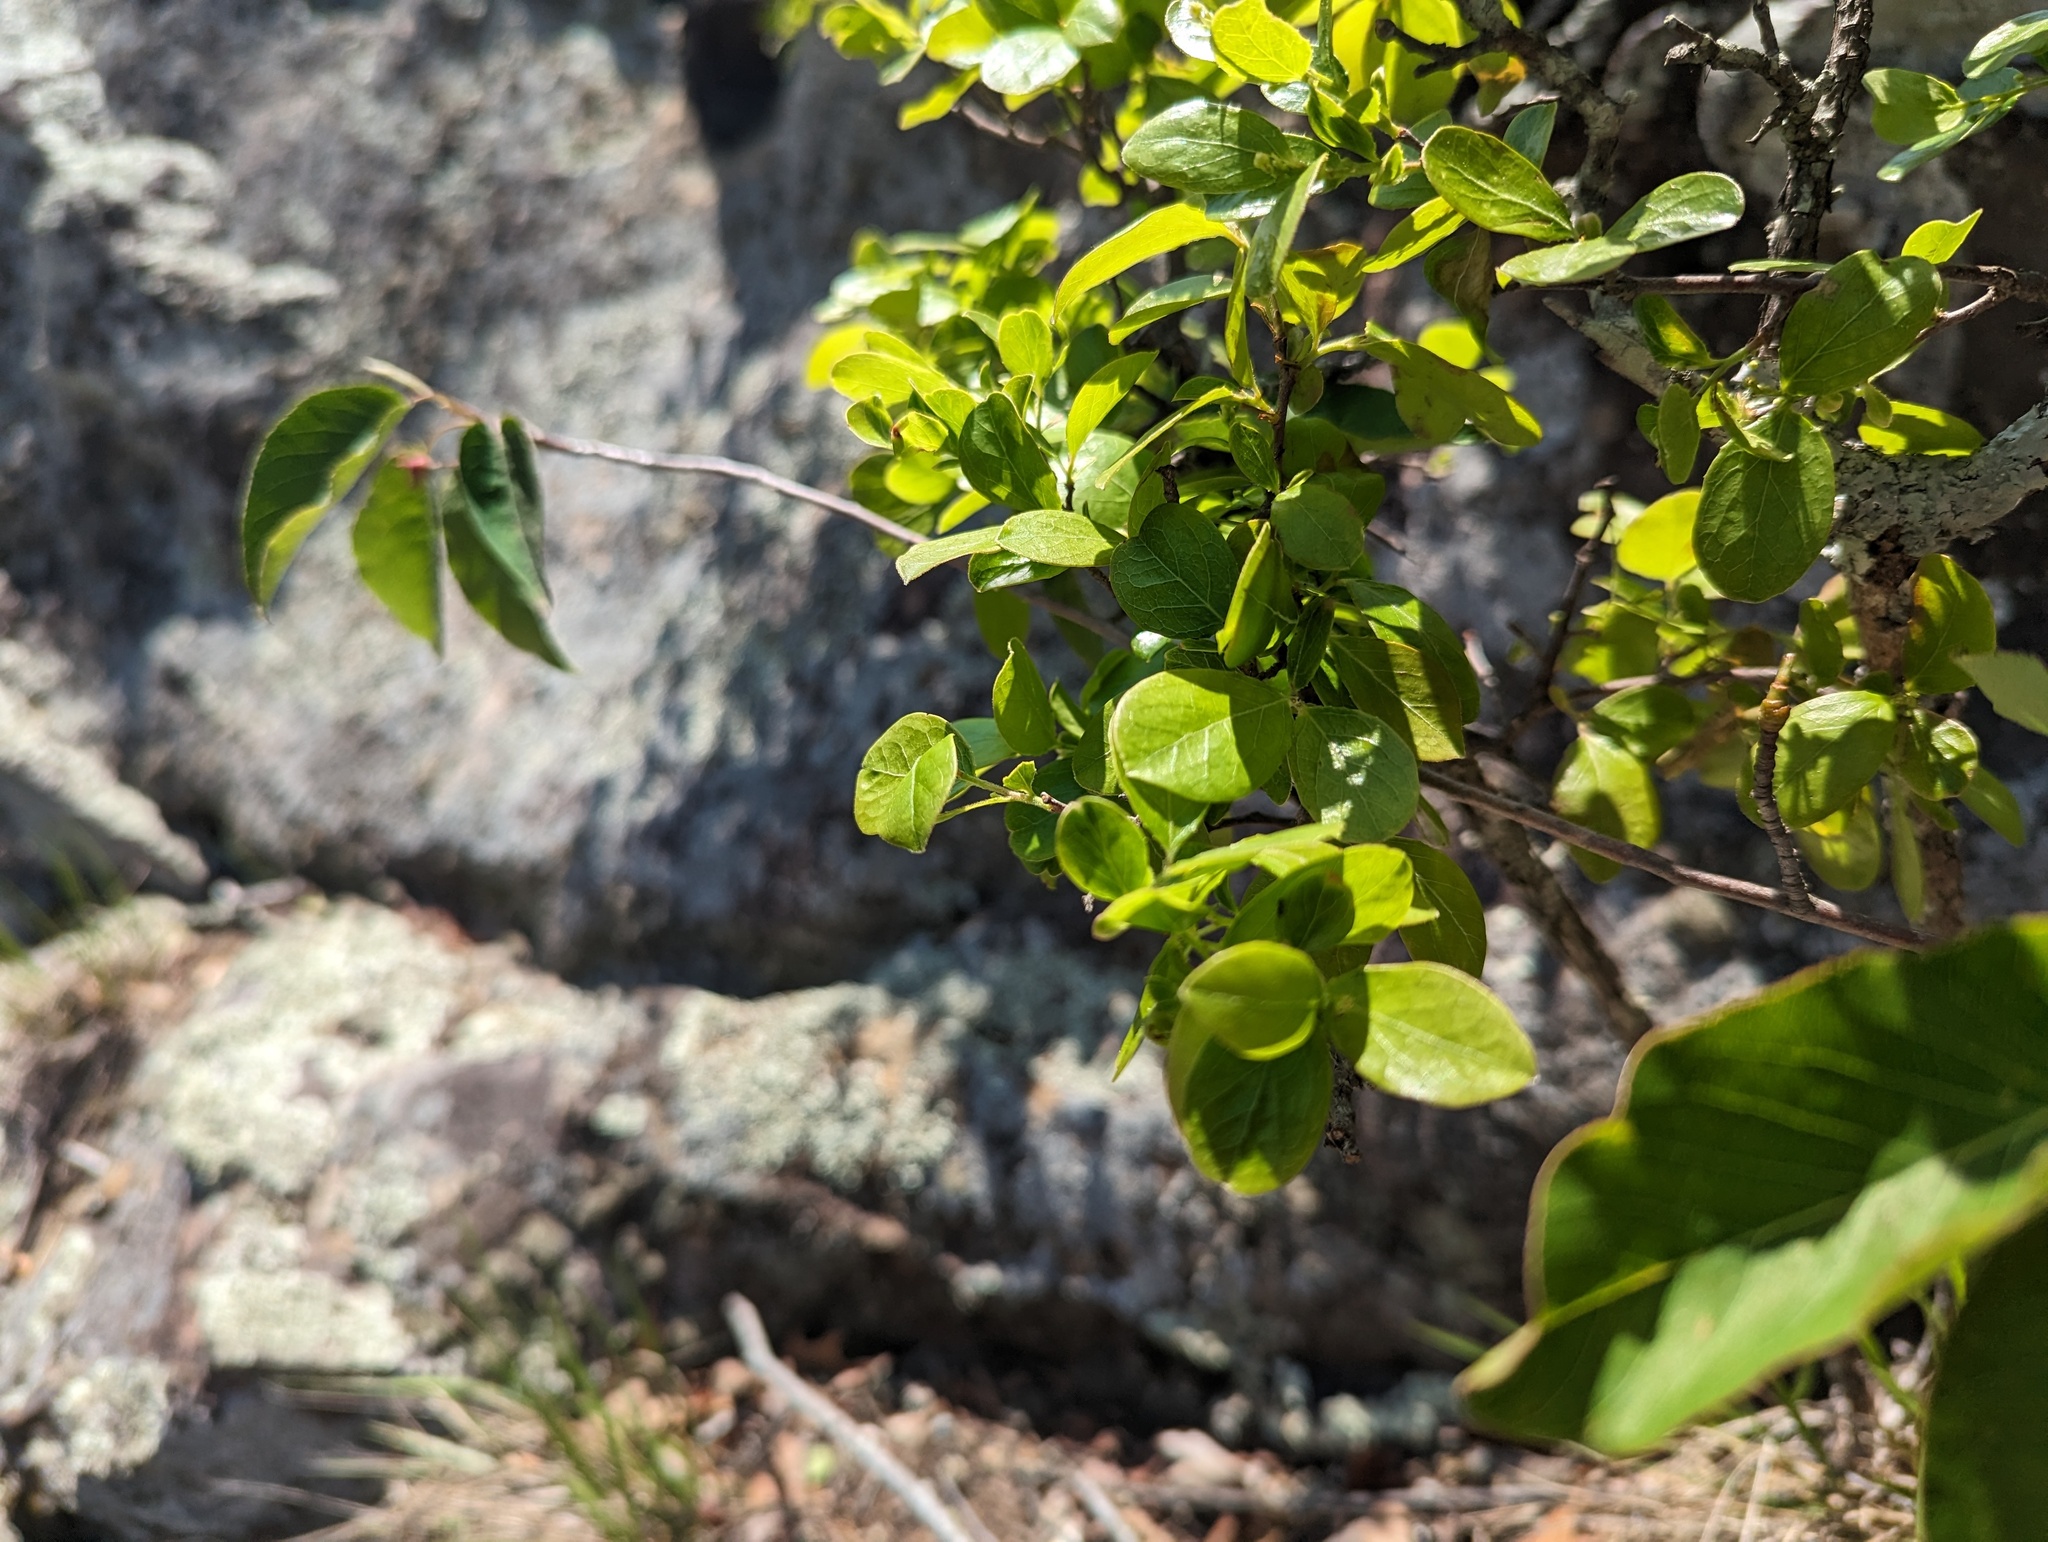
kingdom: Plantae
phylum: Tracheophyta
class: Magnoliopsida
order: Ericales
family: Ericaceae
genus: Vaccinium
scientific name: Vaccinium arboreum
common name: Farkleberry
